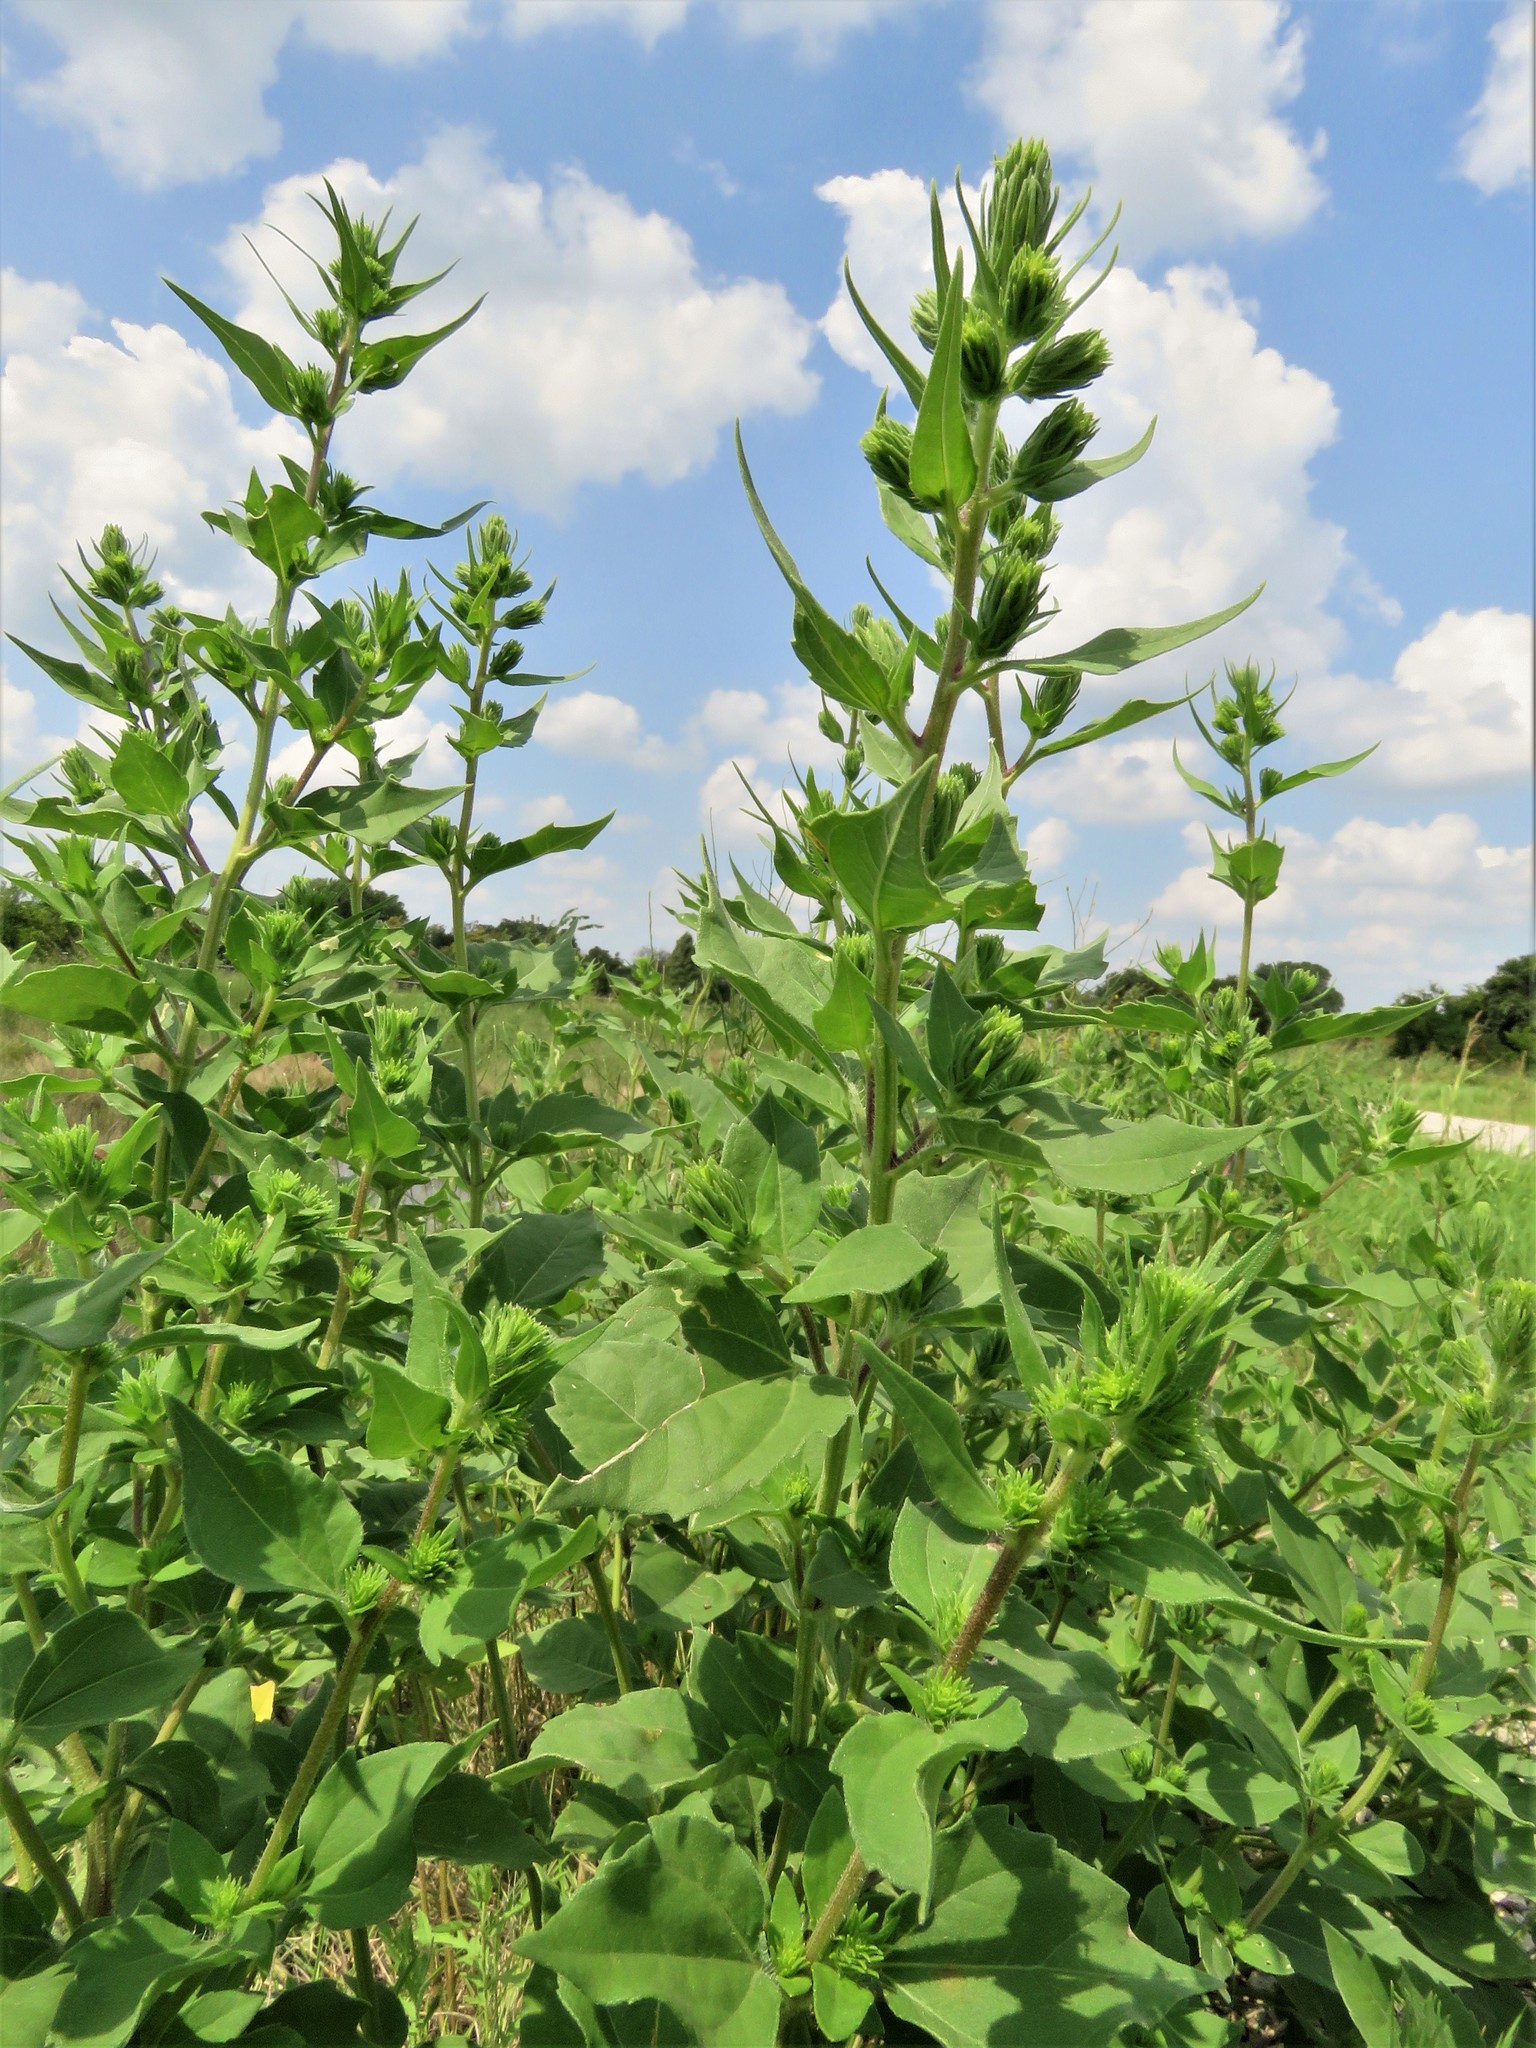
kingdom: Plantae
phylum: Tracheophyta
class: Magnoliopsida
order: Asterales
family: Asteraceae
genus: Iva
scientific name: Iva annua
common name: Marsh-elder
